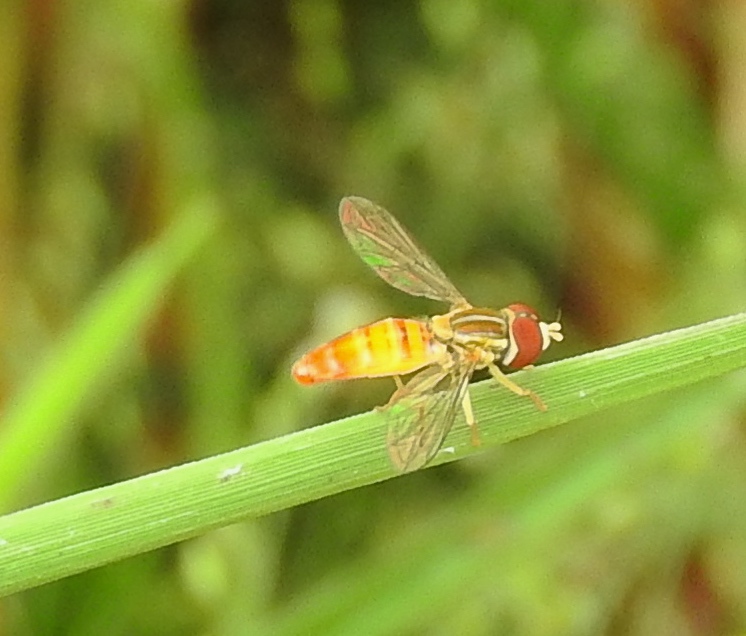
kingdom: Animalia
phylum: Arthropoda
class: Insecta
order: Diptera
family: Syrphidae
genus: Toxomerus
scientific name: Toxomerus
